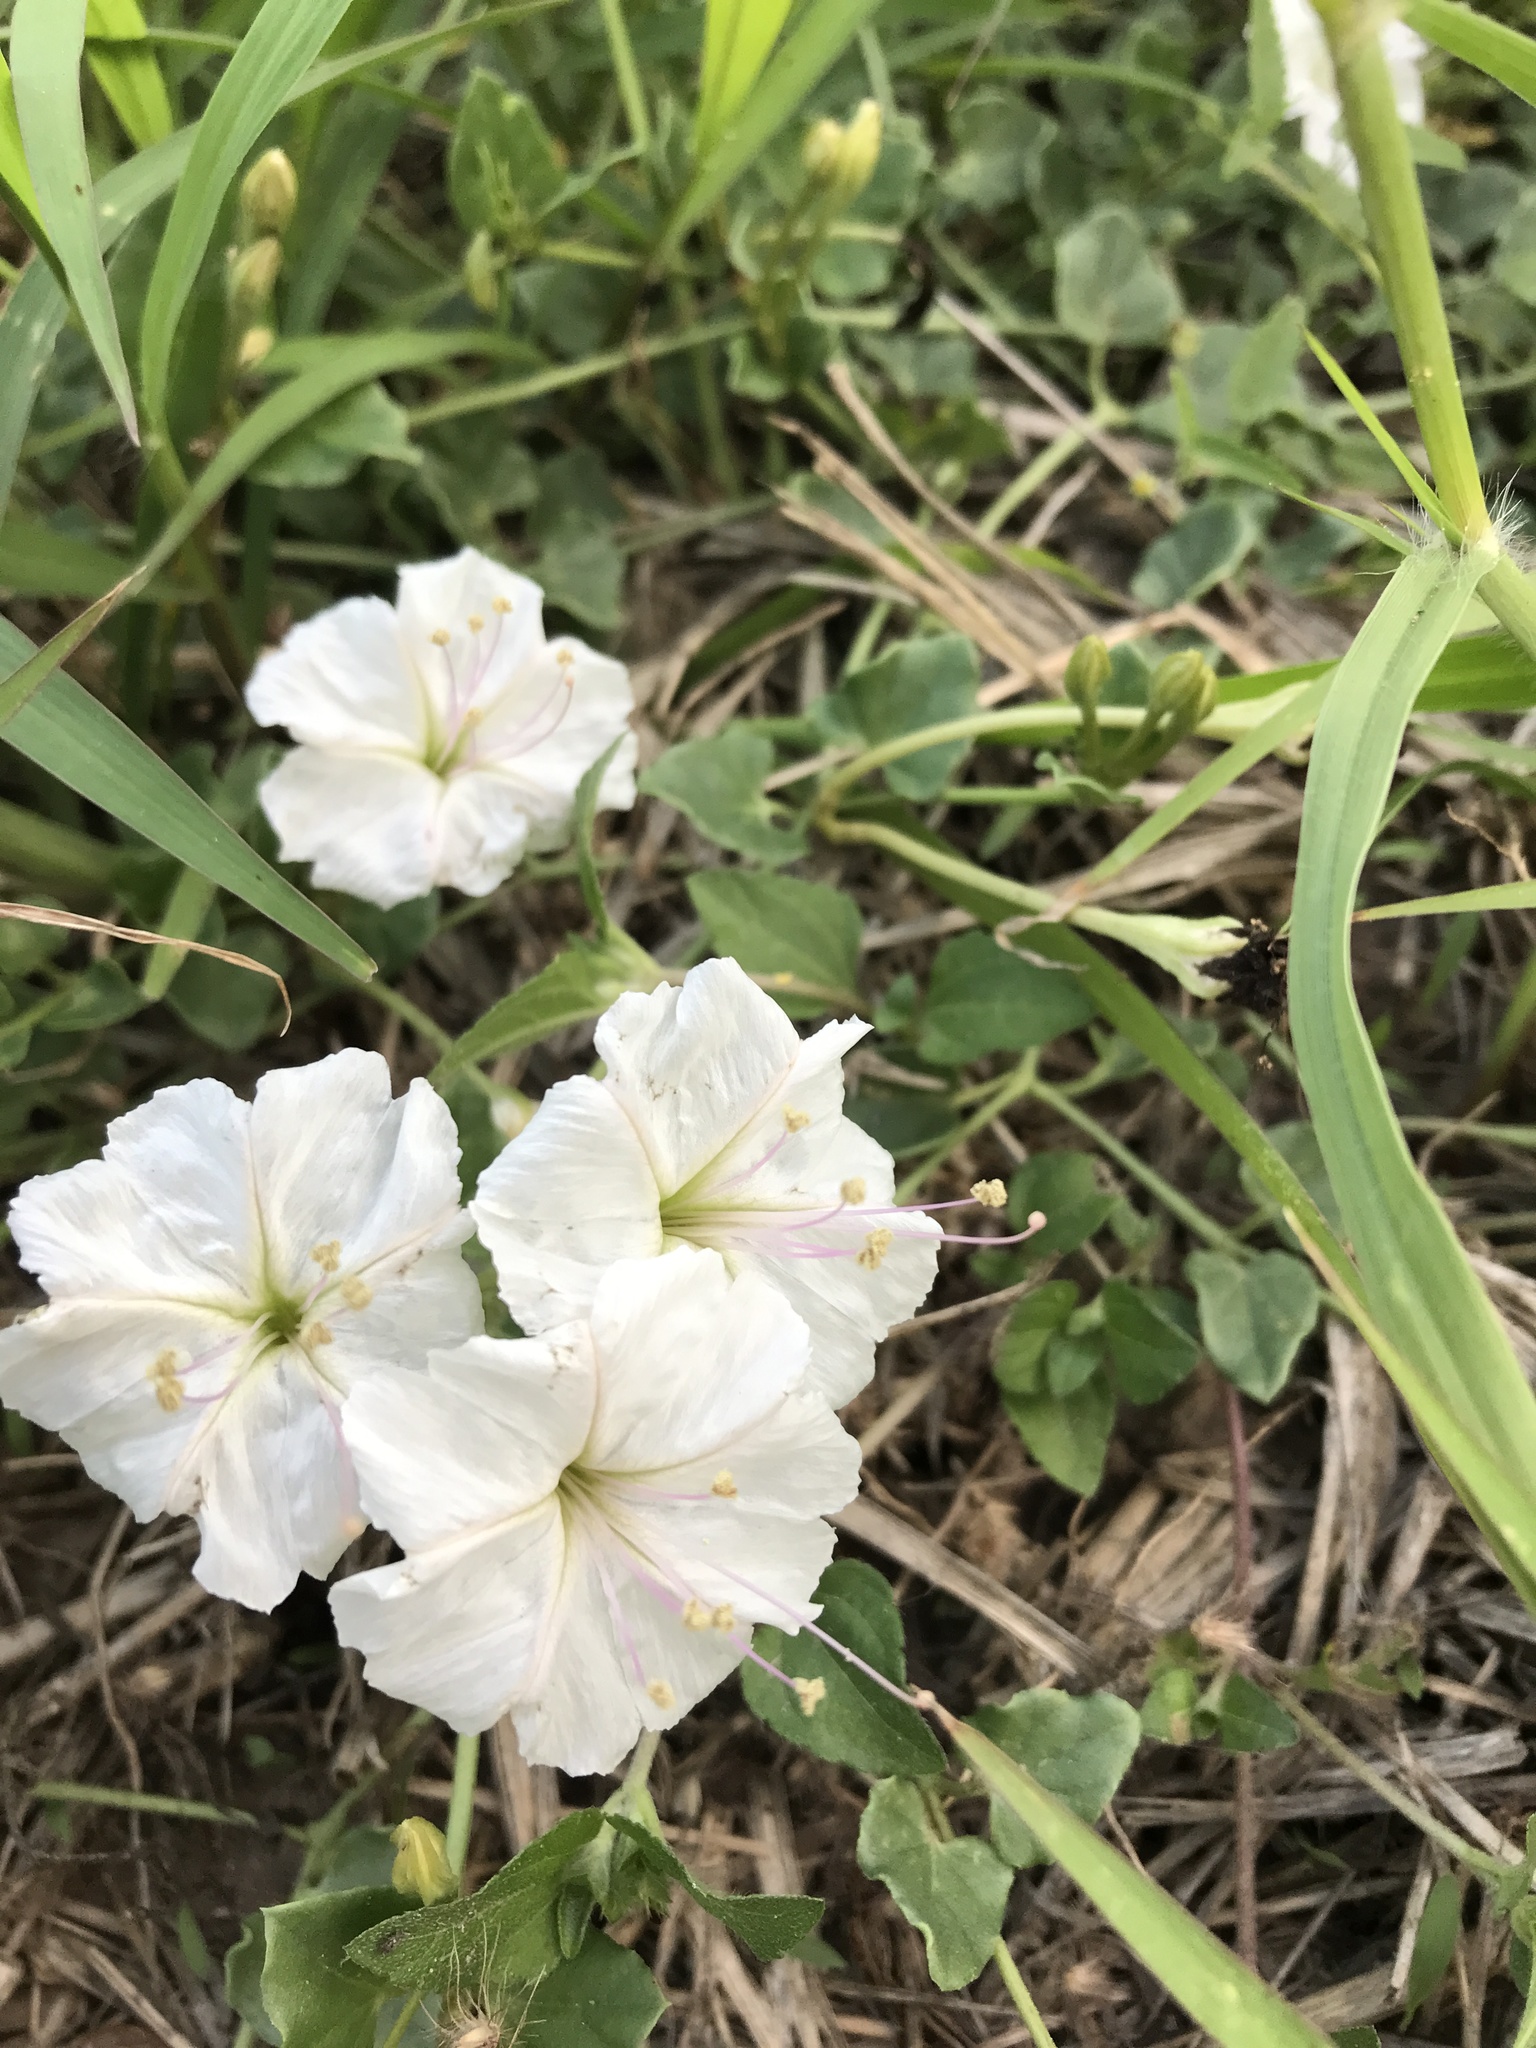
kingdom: Plantae
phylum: Tracheophyta
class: Magnoliopsida
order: Caryophyllales
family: Nyctaginaceae
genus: Acleisanthes
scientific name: Acleisanthes obtusa
